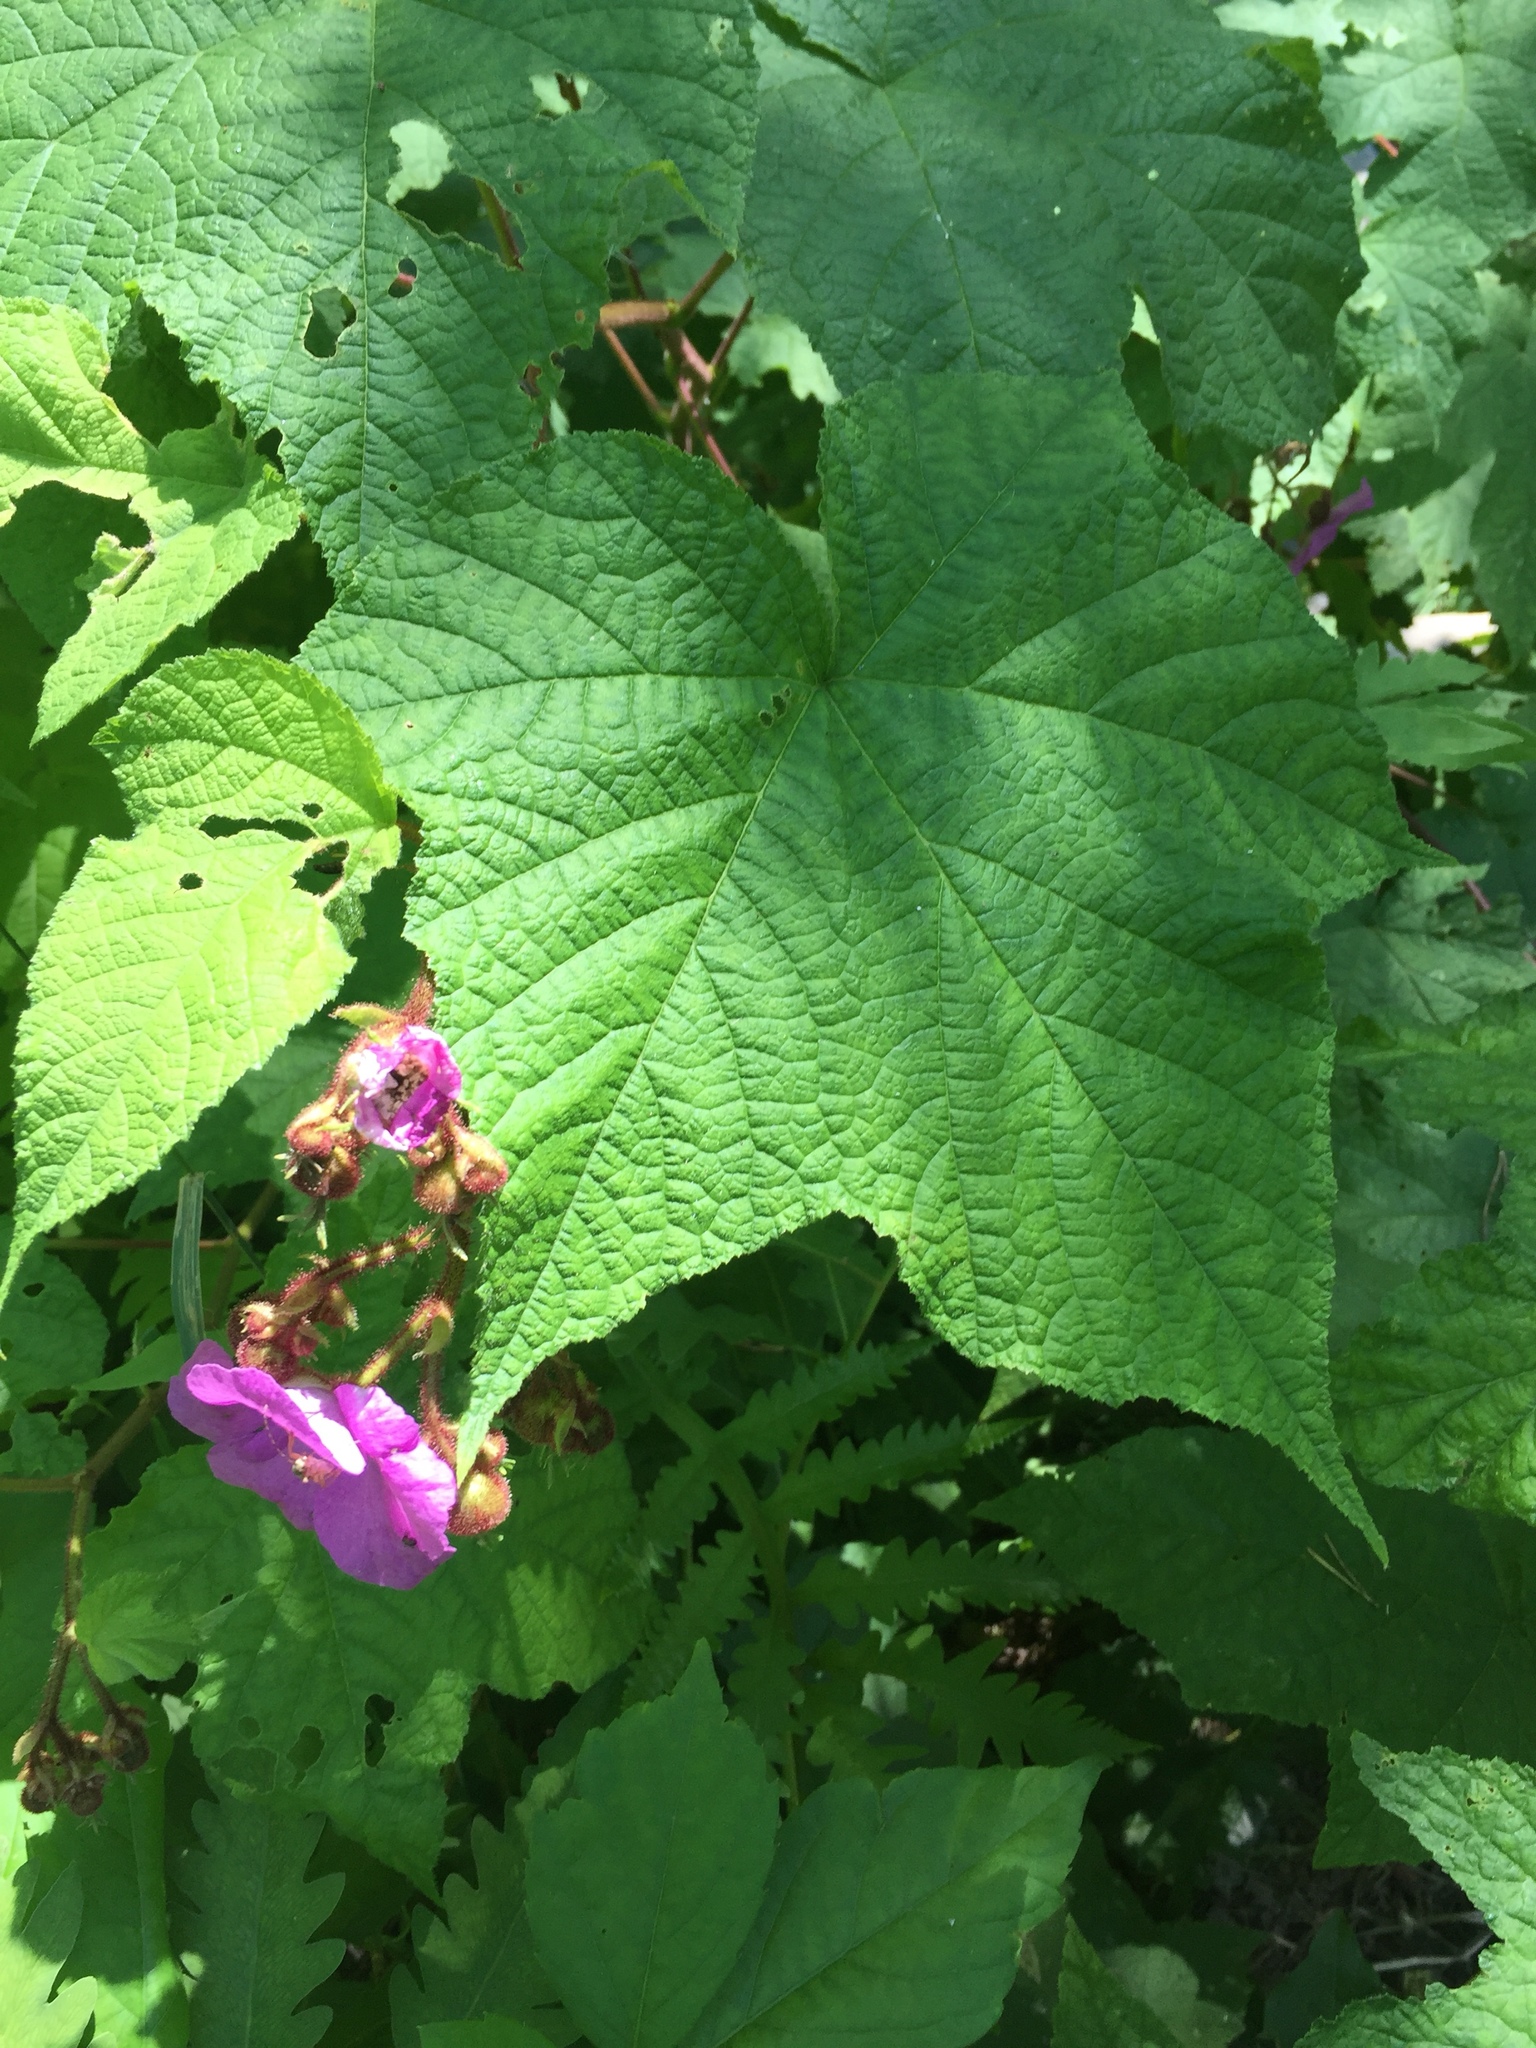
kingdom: Plantae
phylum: Tracheophyta
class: Magnoliopsida
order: Rosales
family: Rosaceae
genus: Rubus
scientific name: Rubus odoratus
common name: Purple-flowered raspberry
